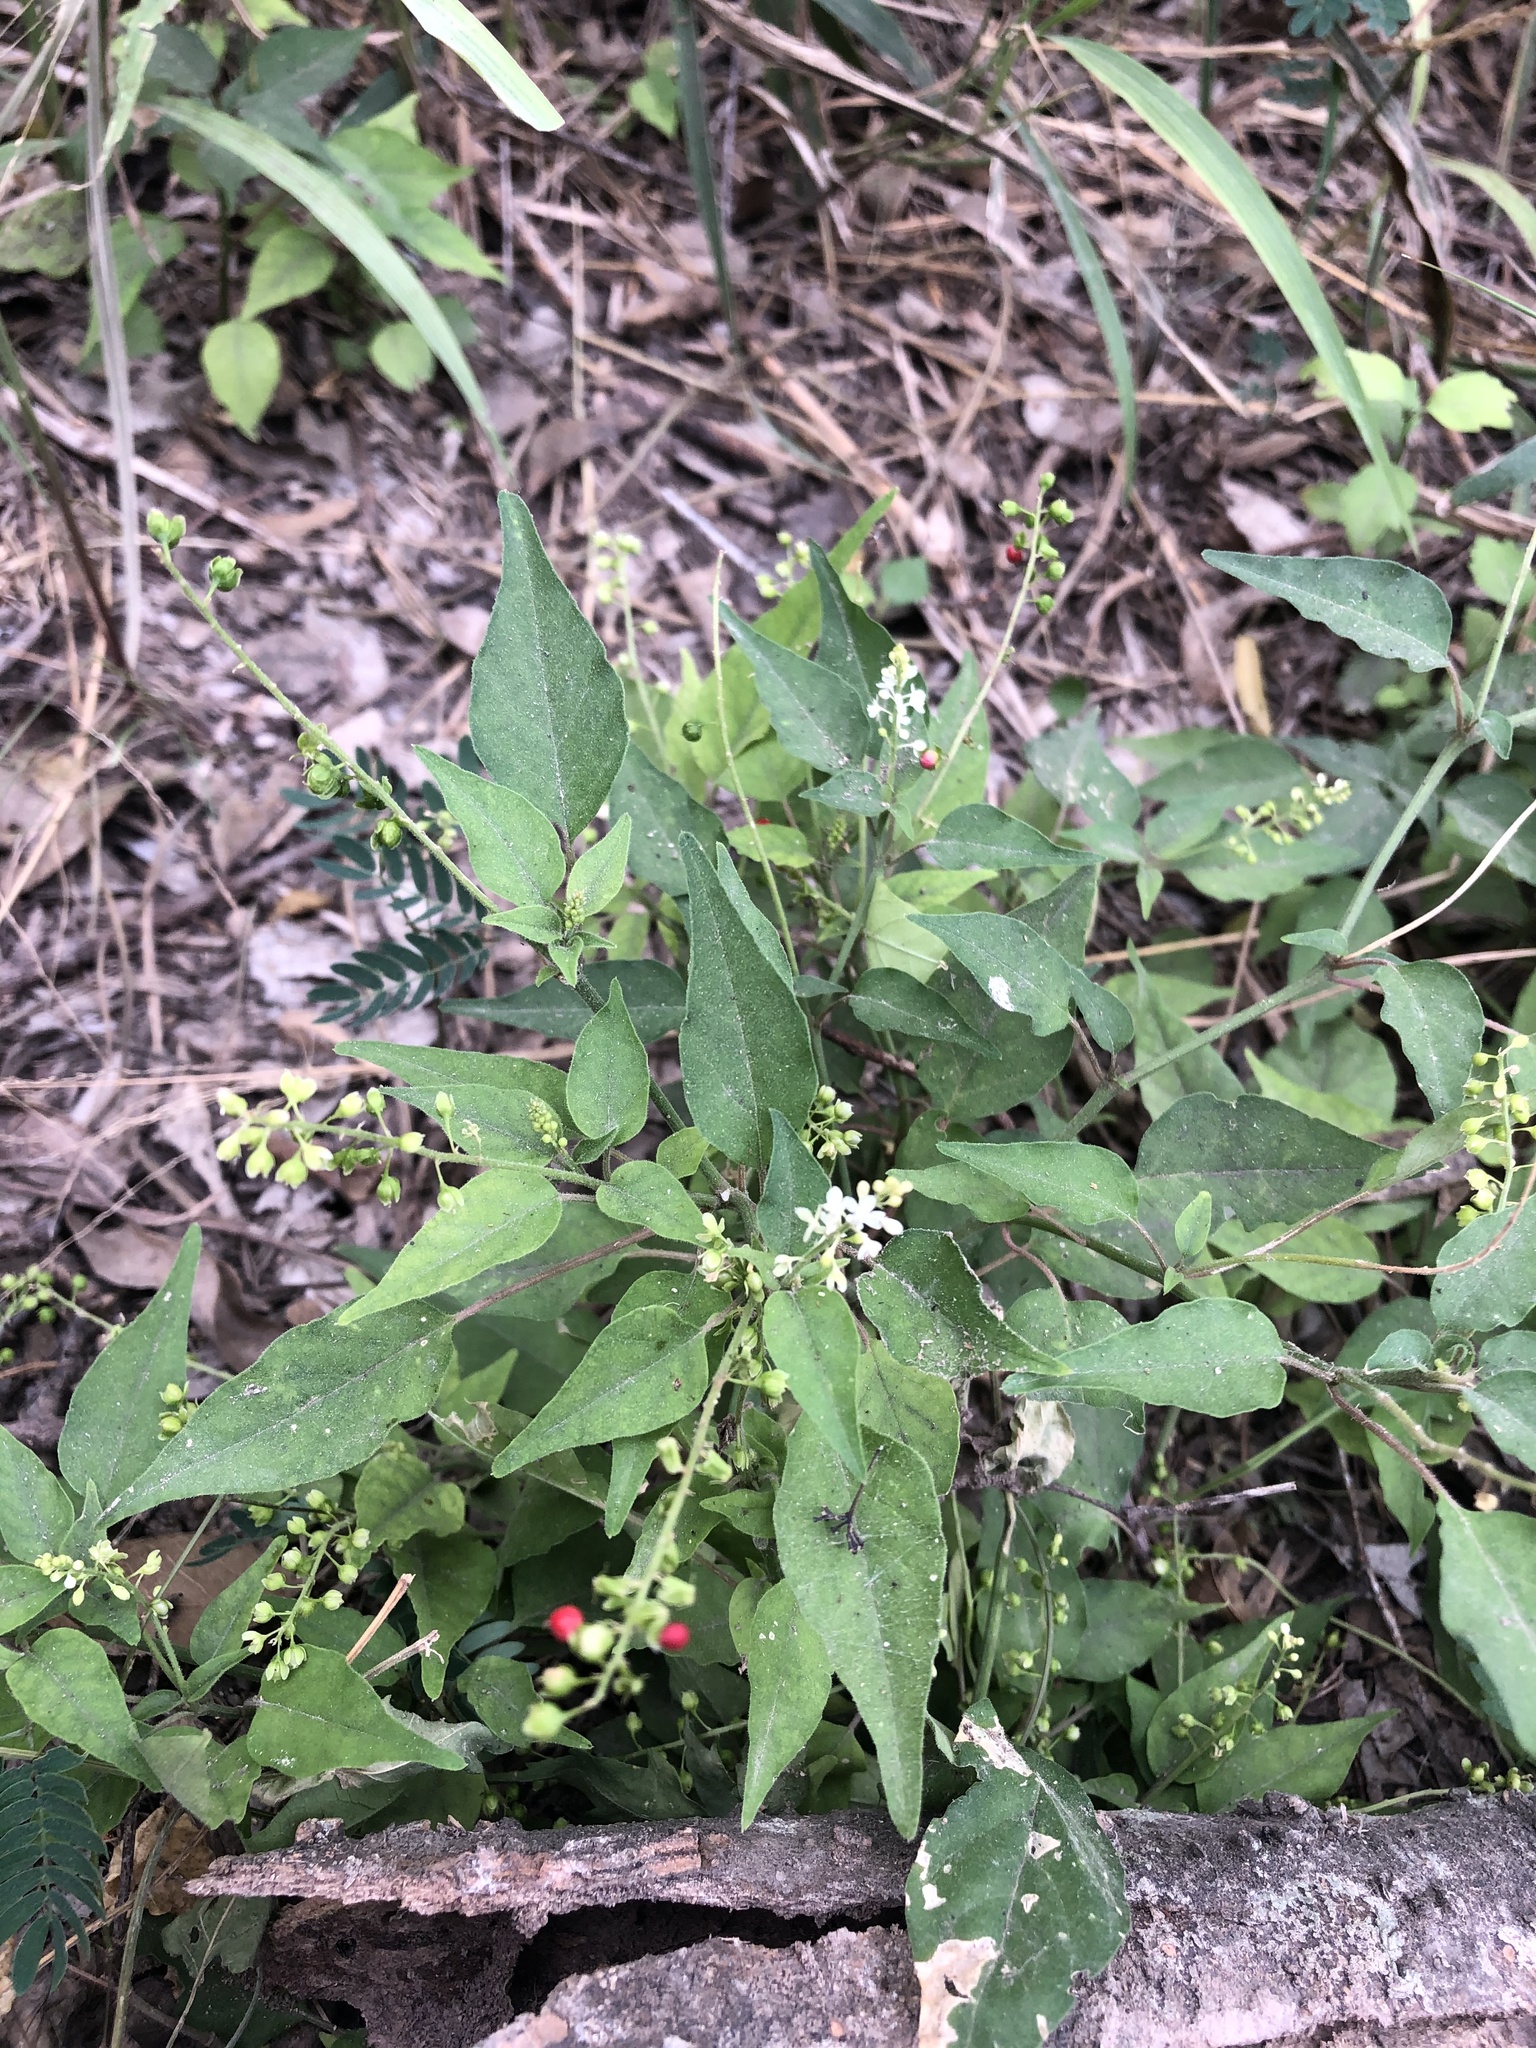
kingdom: Plantae
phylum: Tracheophyta
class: Magnoliopsida
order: Caryophyllales
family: Phytolaccaceae
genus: Rivina
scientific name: Rivina humilis
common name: Rougeplant
